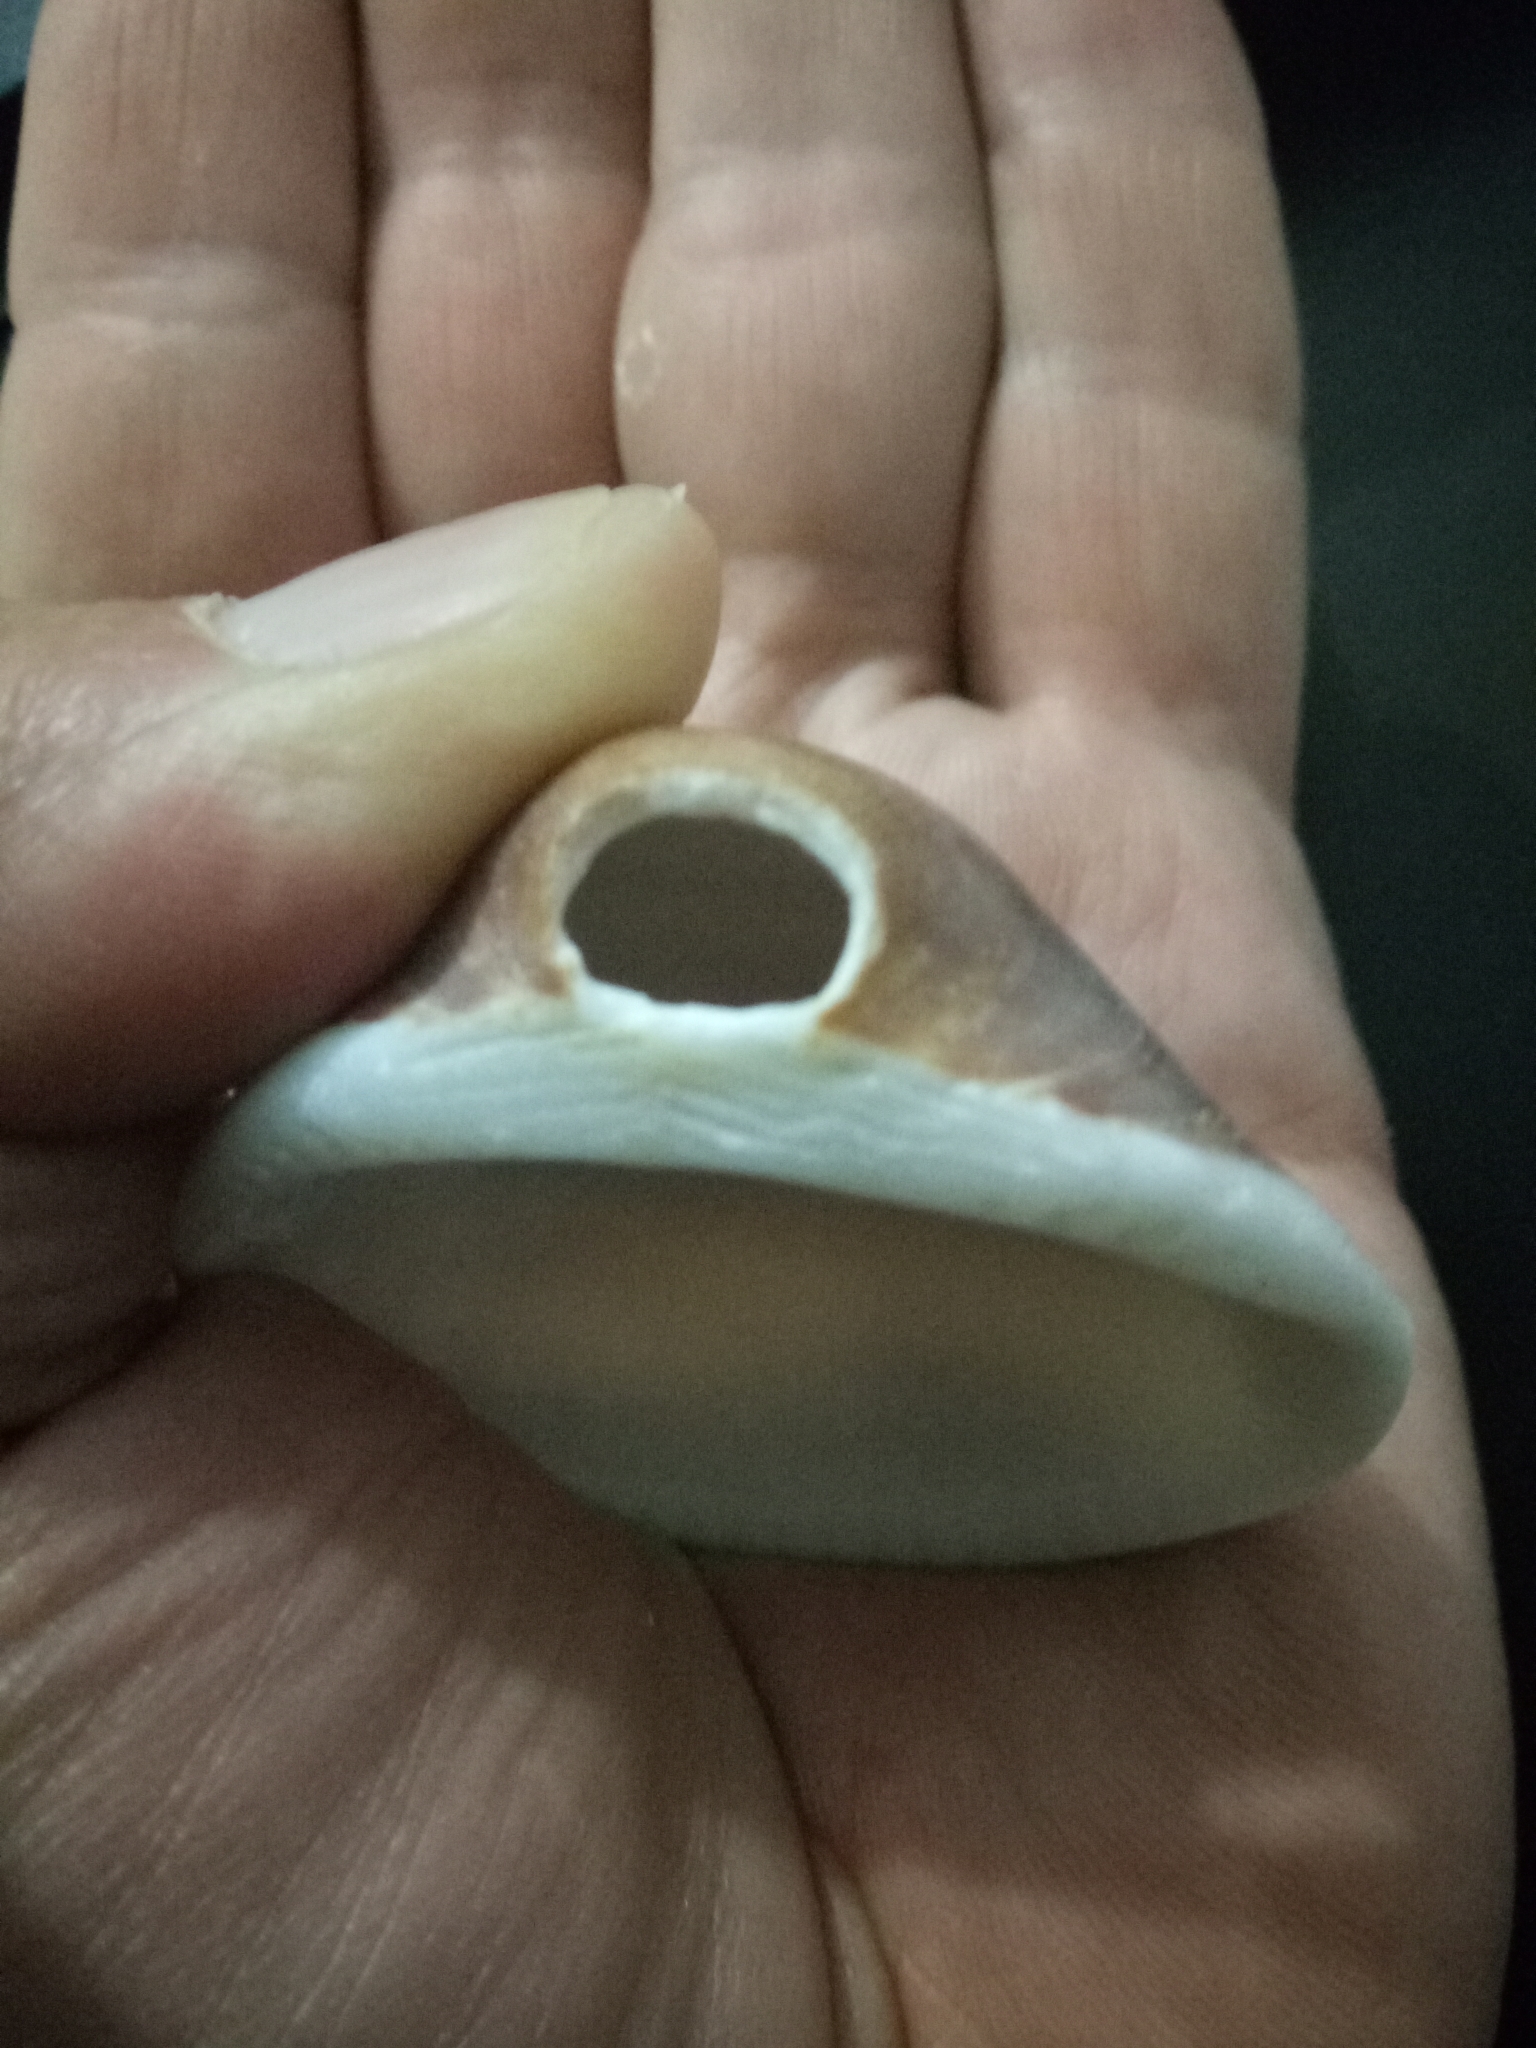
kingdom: Animalia
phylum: Mollusca
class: Bivalvia
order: Arcida
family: Glycymerididae
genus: Glycymeris
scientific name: Glycymeris glycymeris
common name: Dog-cockle
